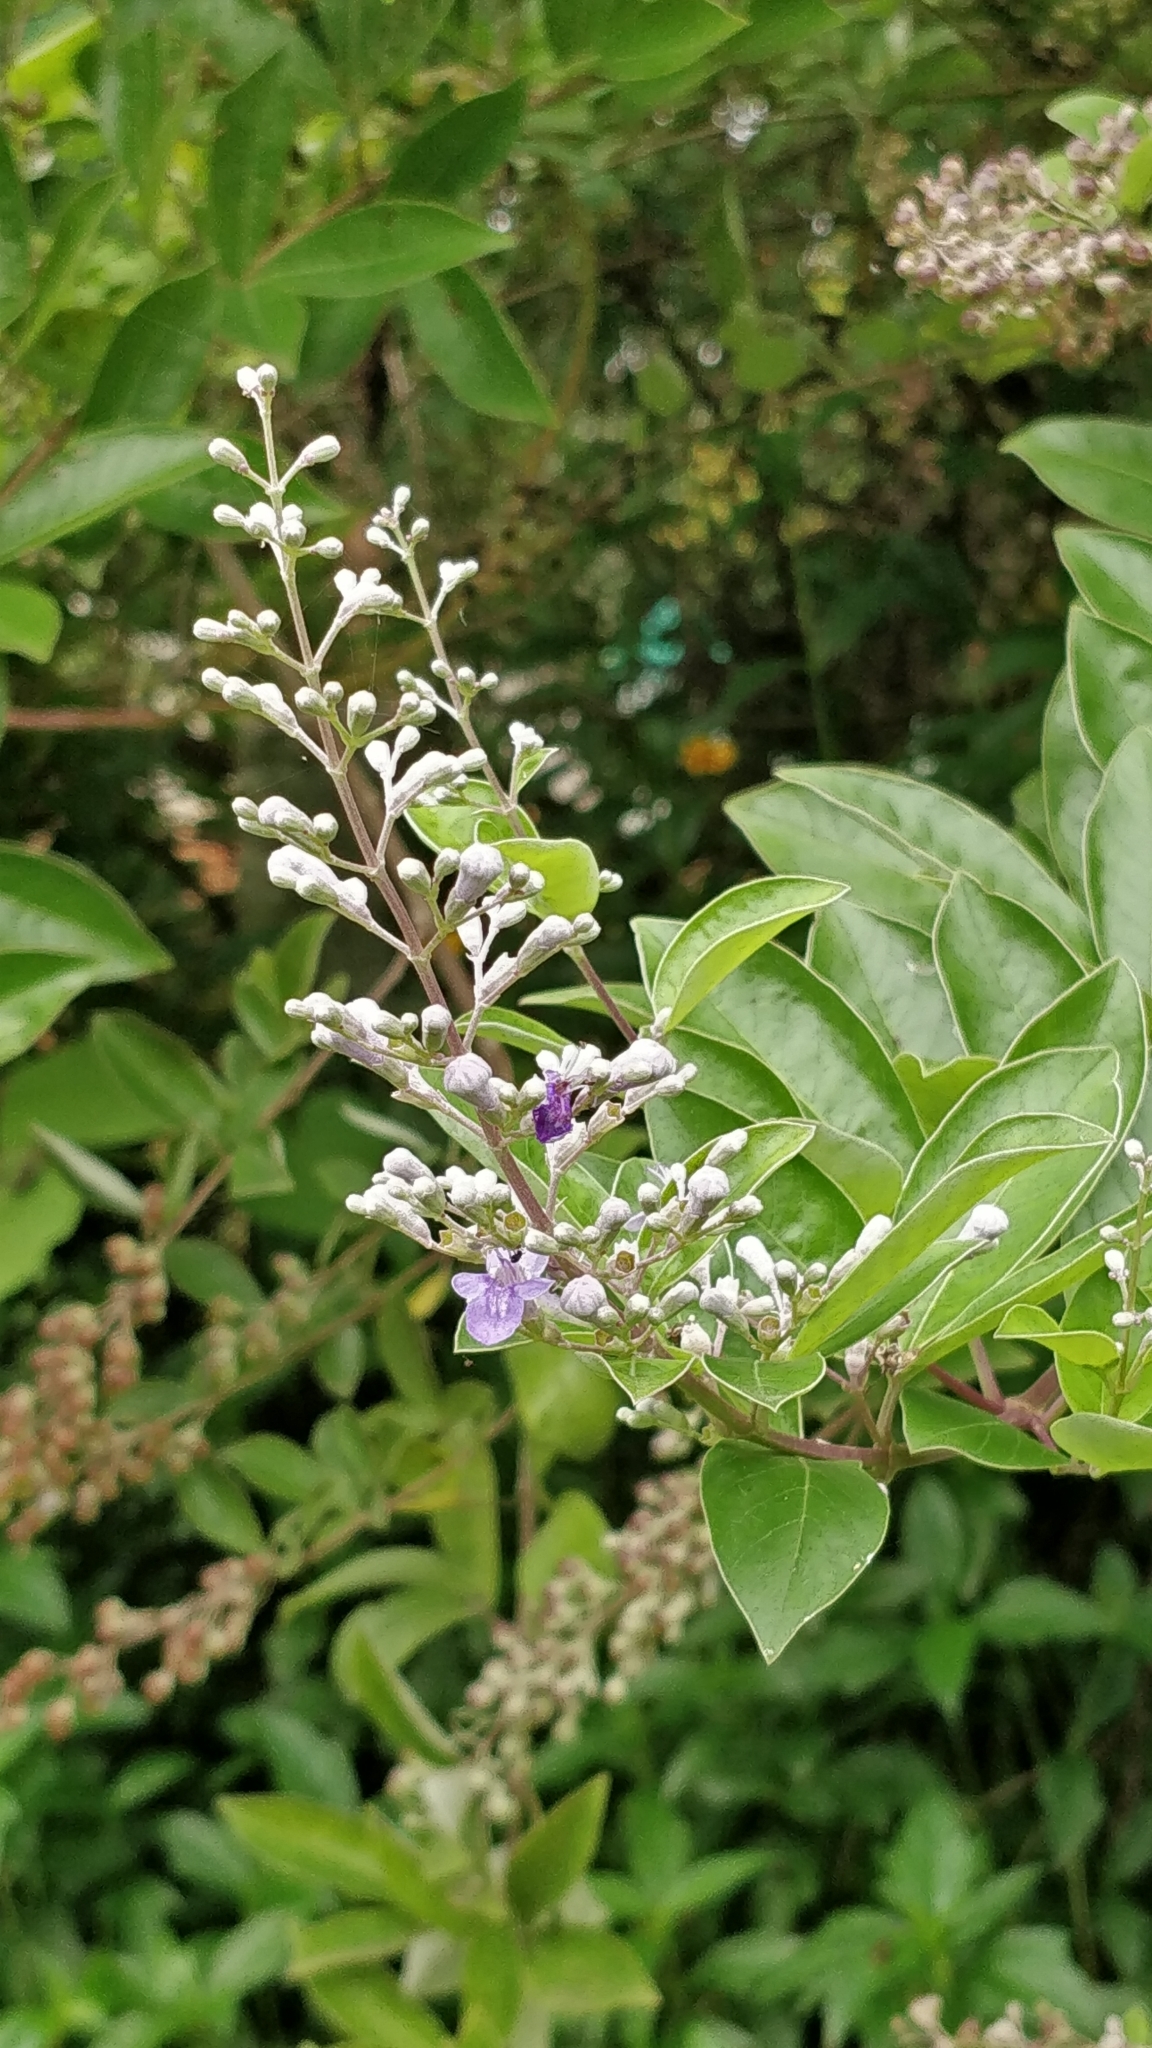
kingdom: Plantae
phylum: Tracheophyta
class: Magnoliopsida
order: Lamiales
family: Lamiaceae
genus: Vitex
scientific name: Vitex negundo
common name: Chinese chastetree
